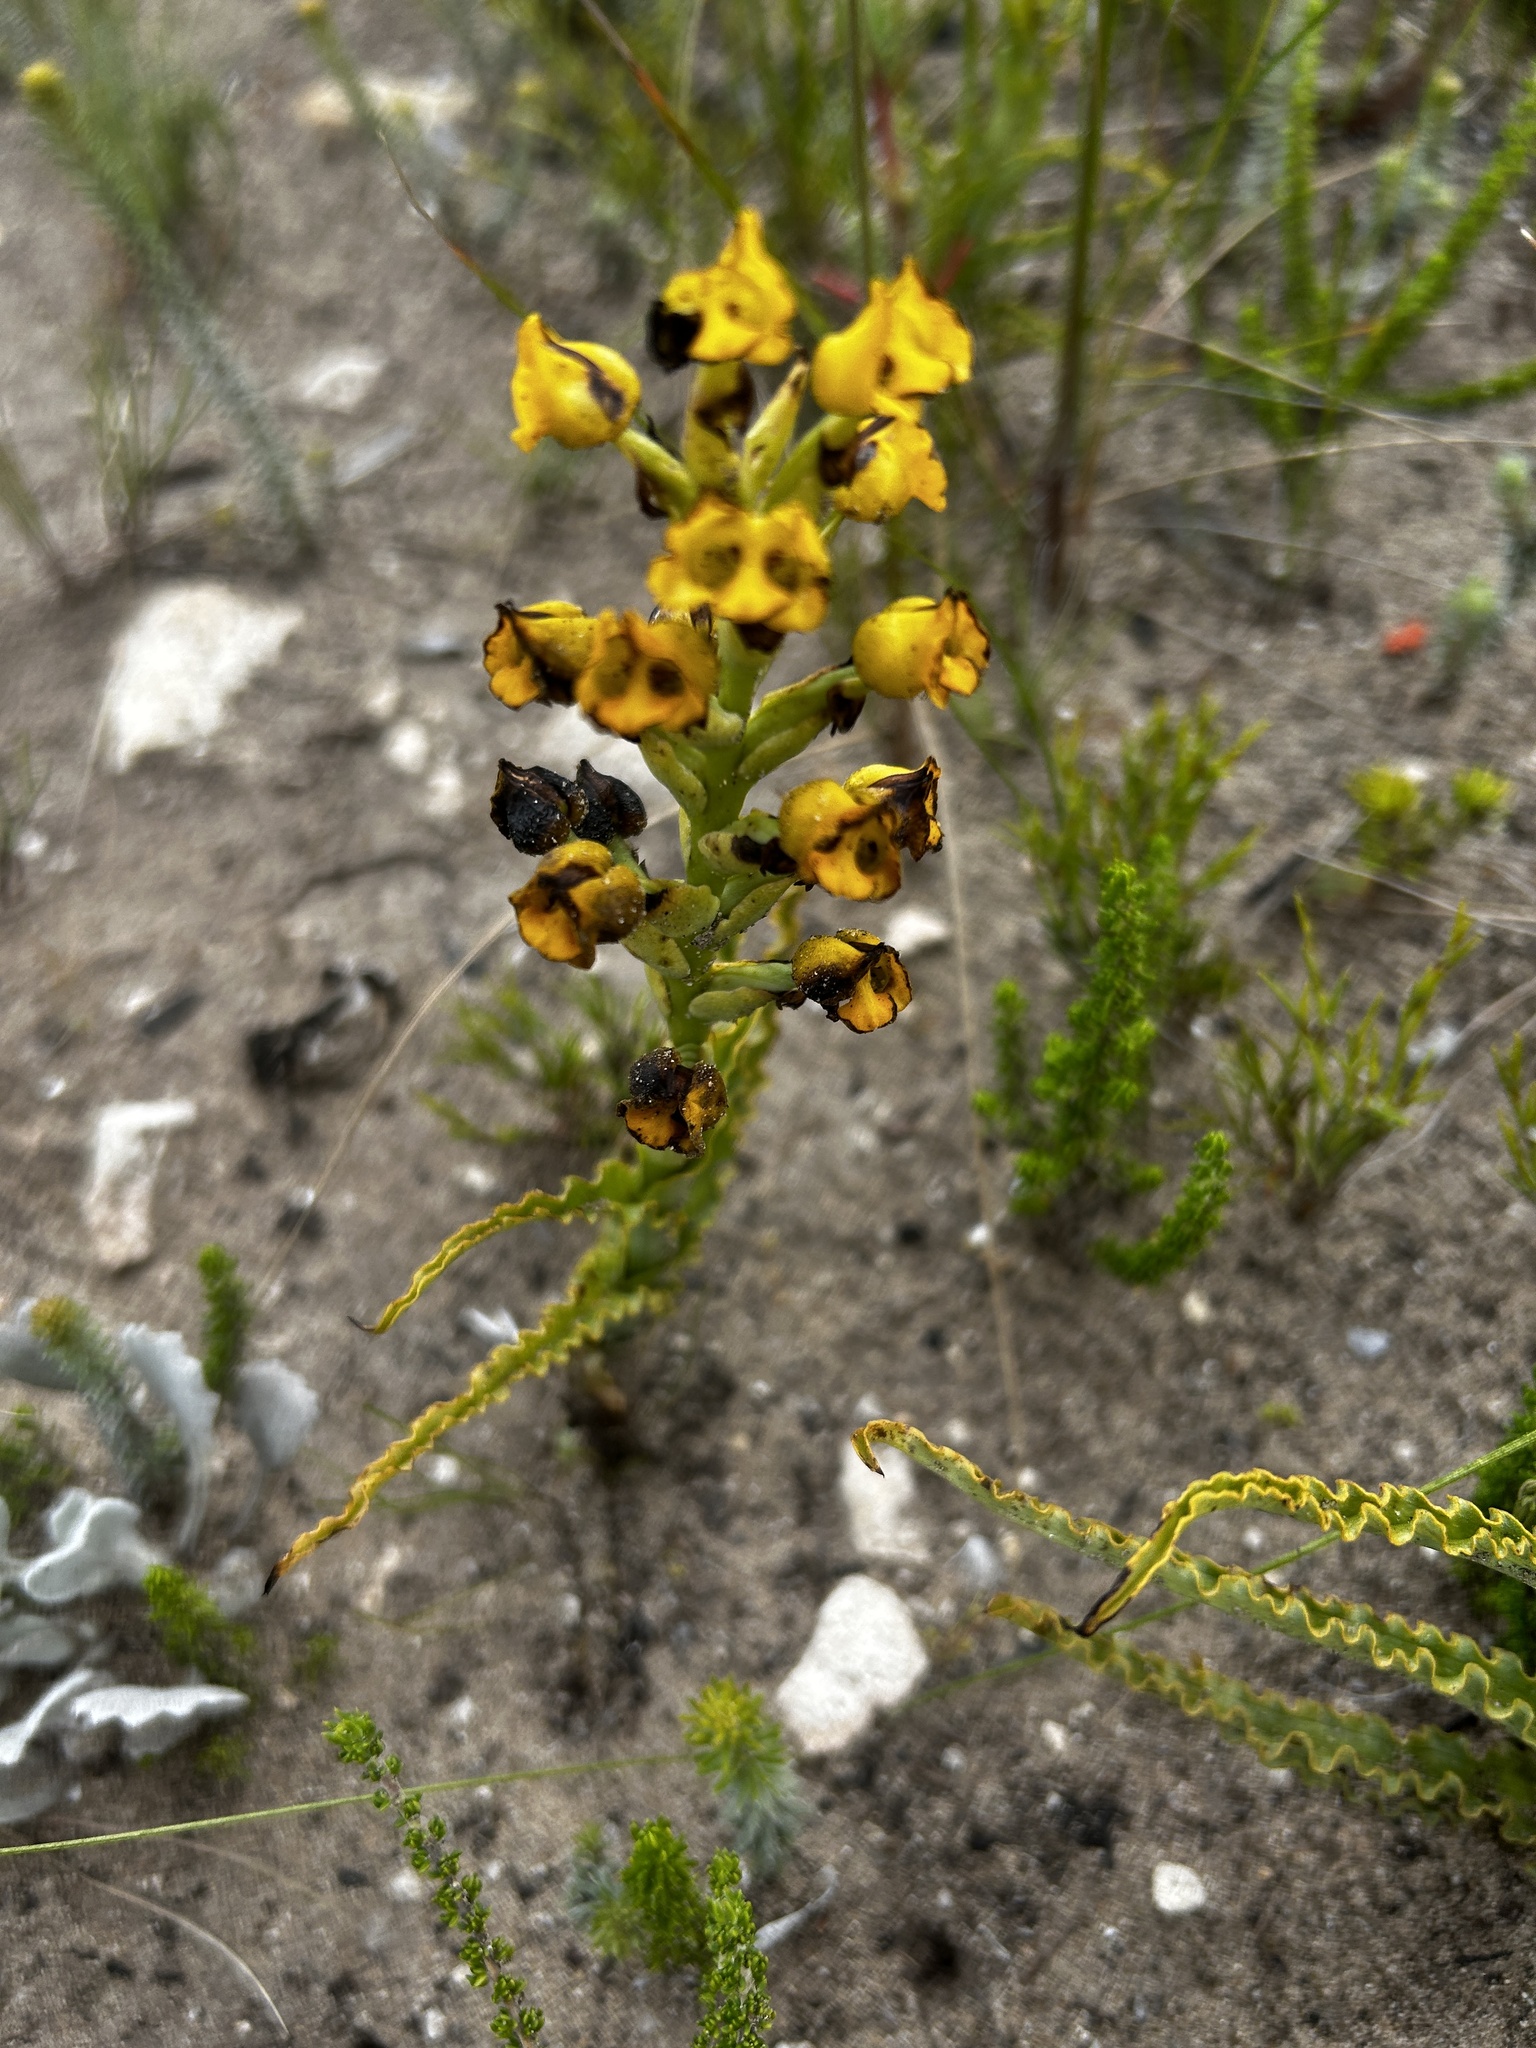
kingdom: Plantae
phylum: Tracheophyta
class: Liliopsida
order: Asparagales
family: Orchidaceae
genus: Corycium
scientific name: Corycium crispum
